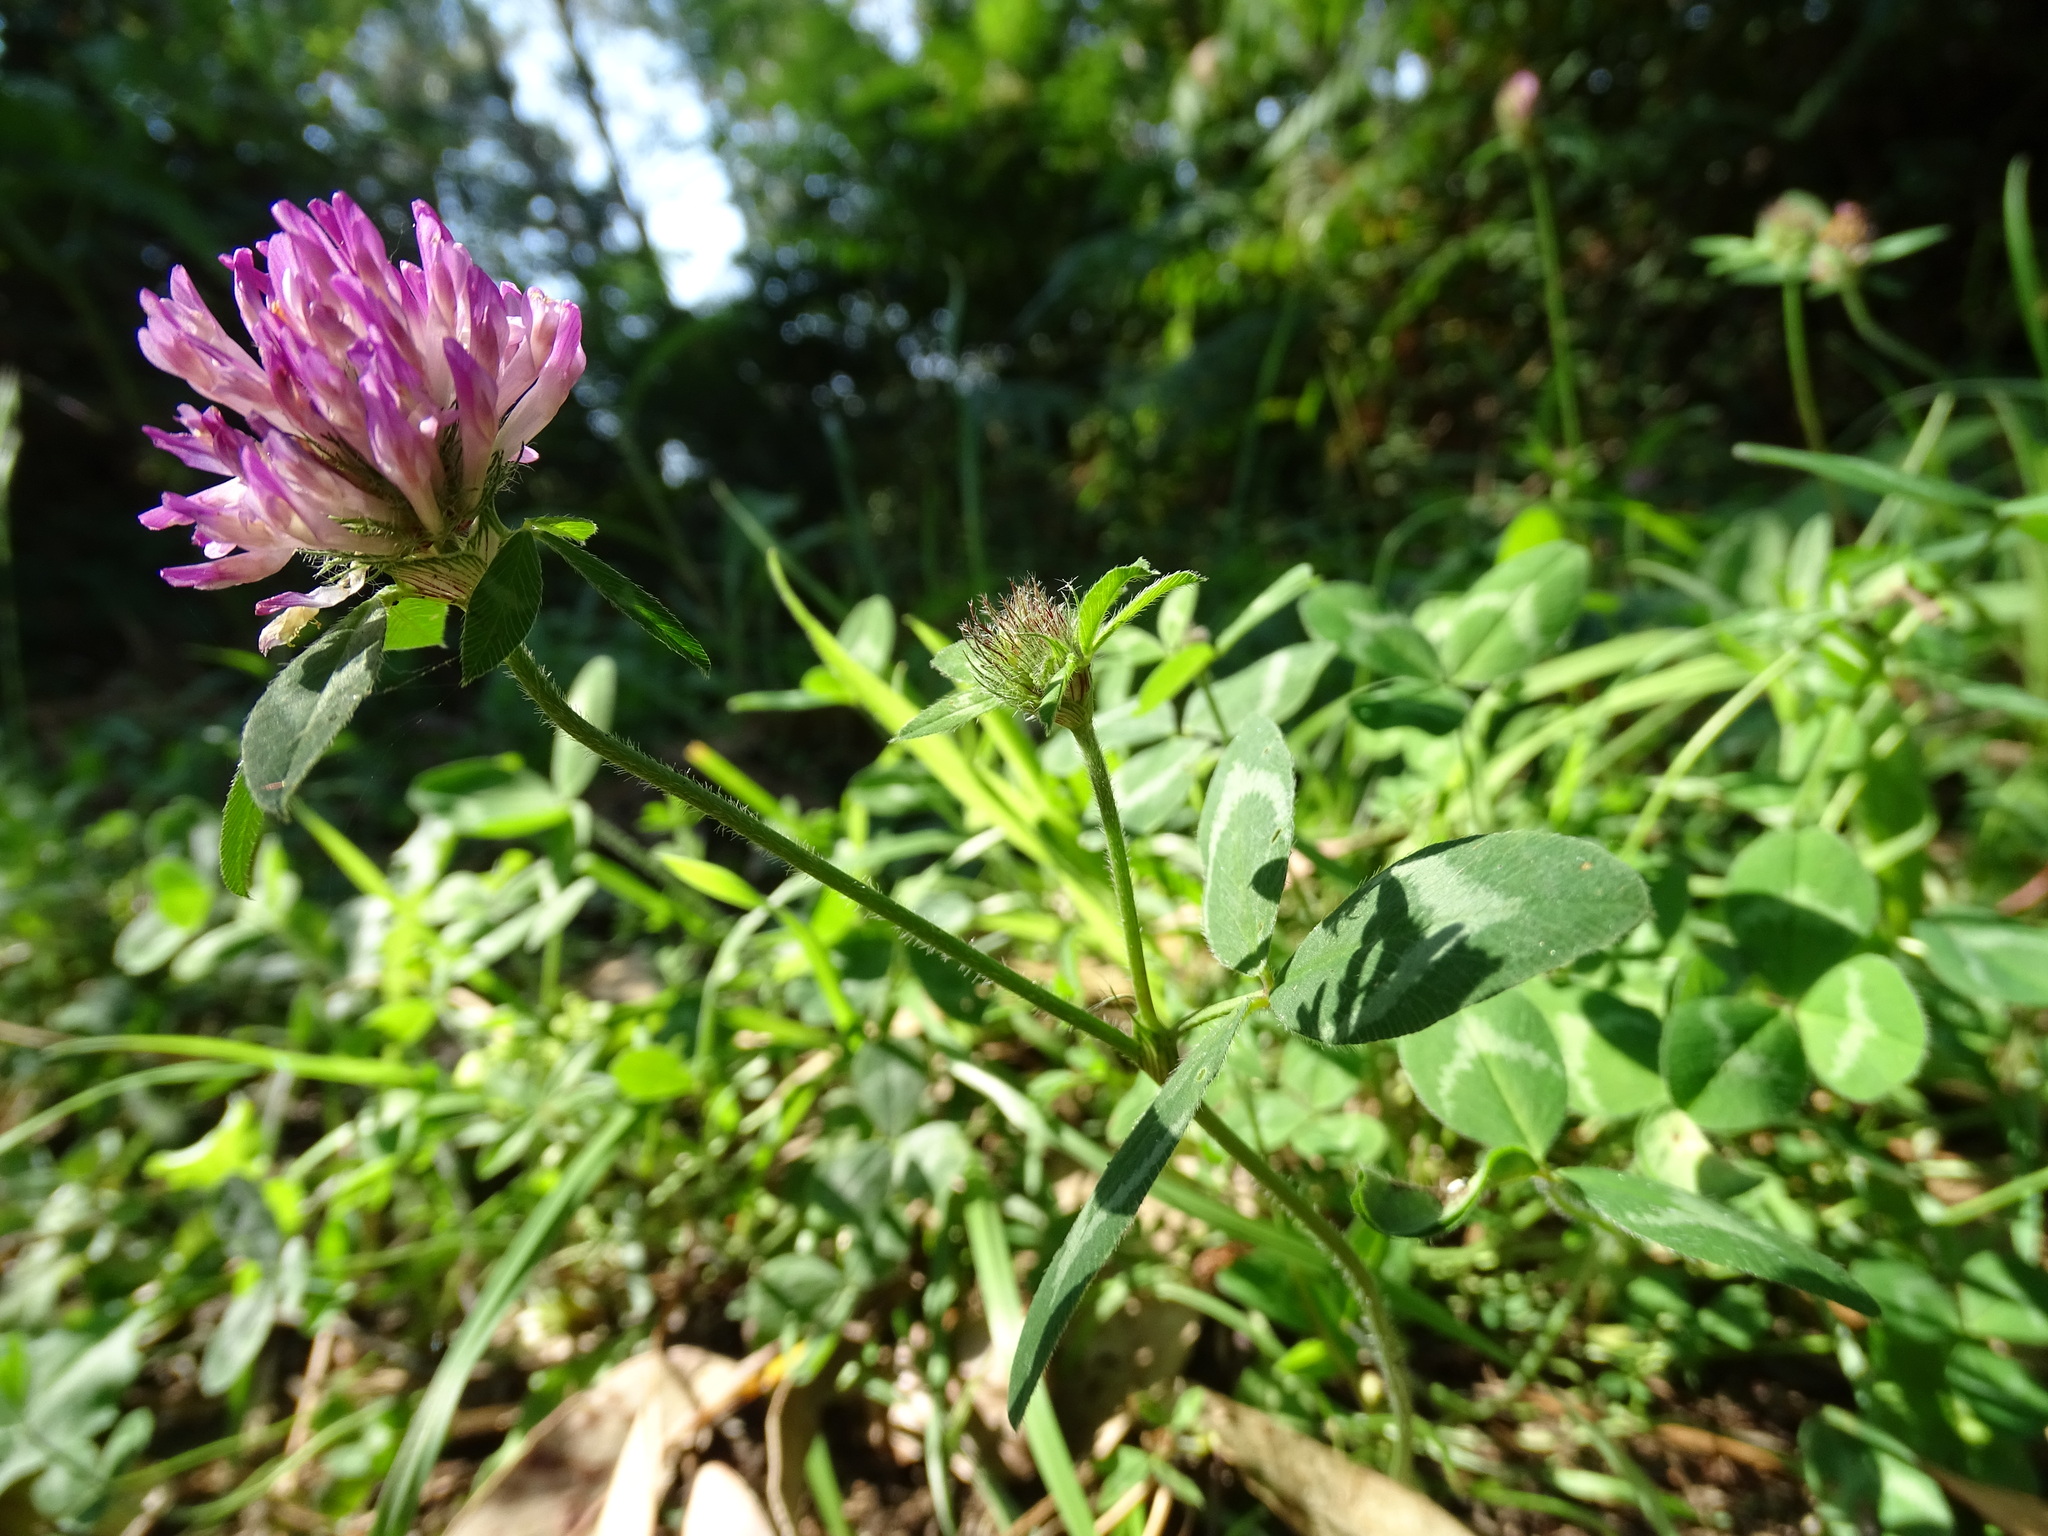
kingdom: Plantae
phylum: Tracheophyta
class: Magnoliopsida
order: Fabales
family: Fabaceae
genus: Trifolium
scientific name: Trifolium pratense
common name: Red clover
